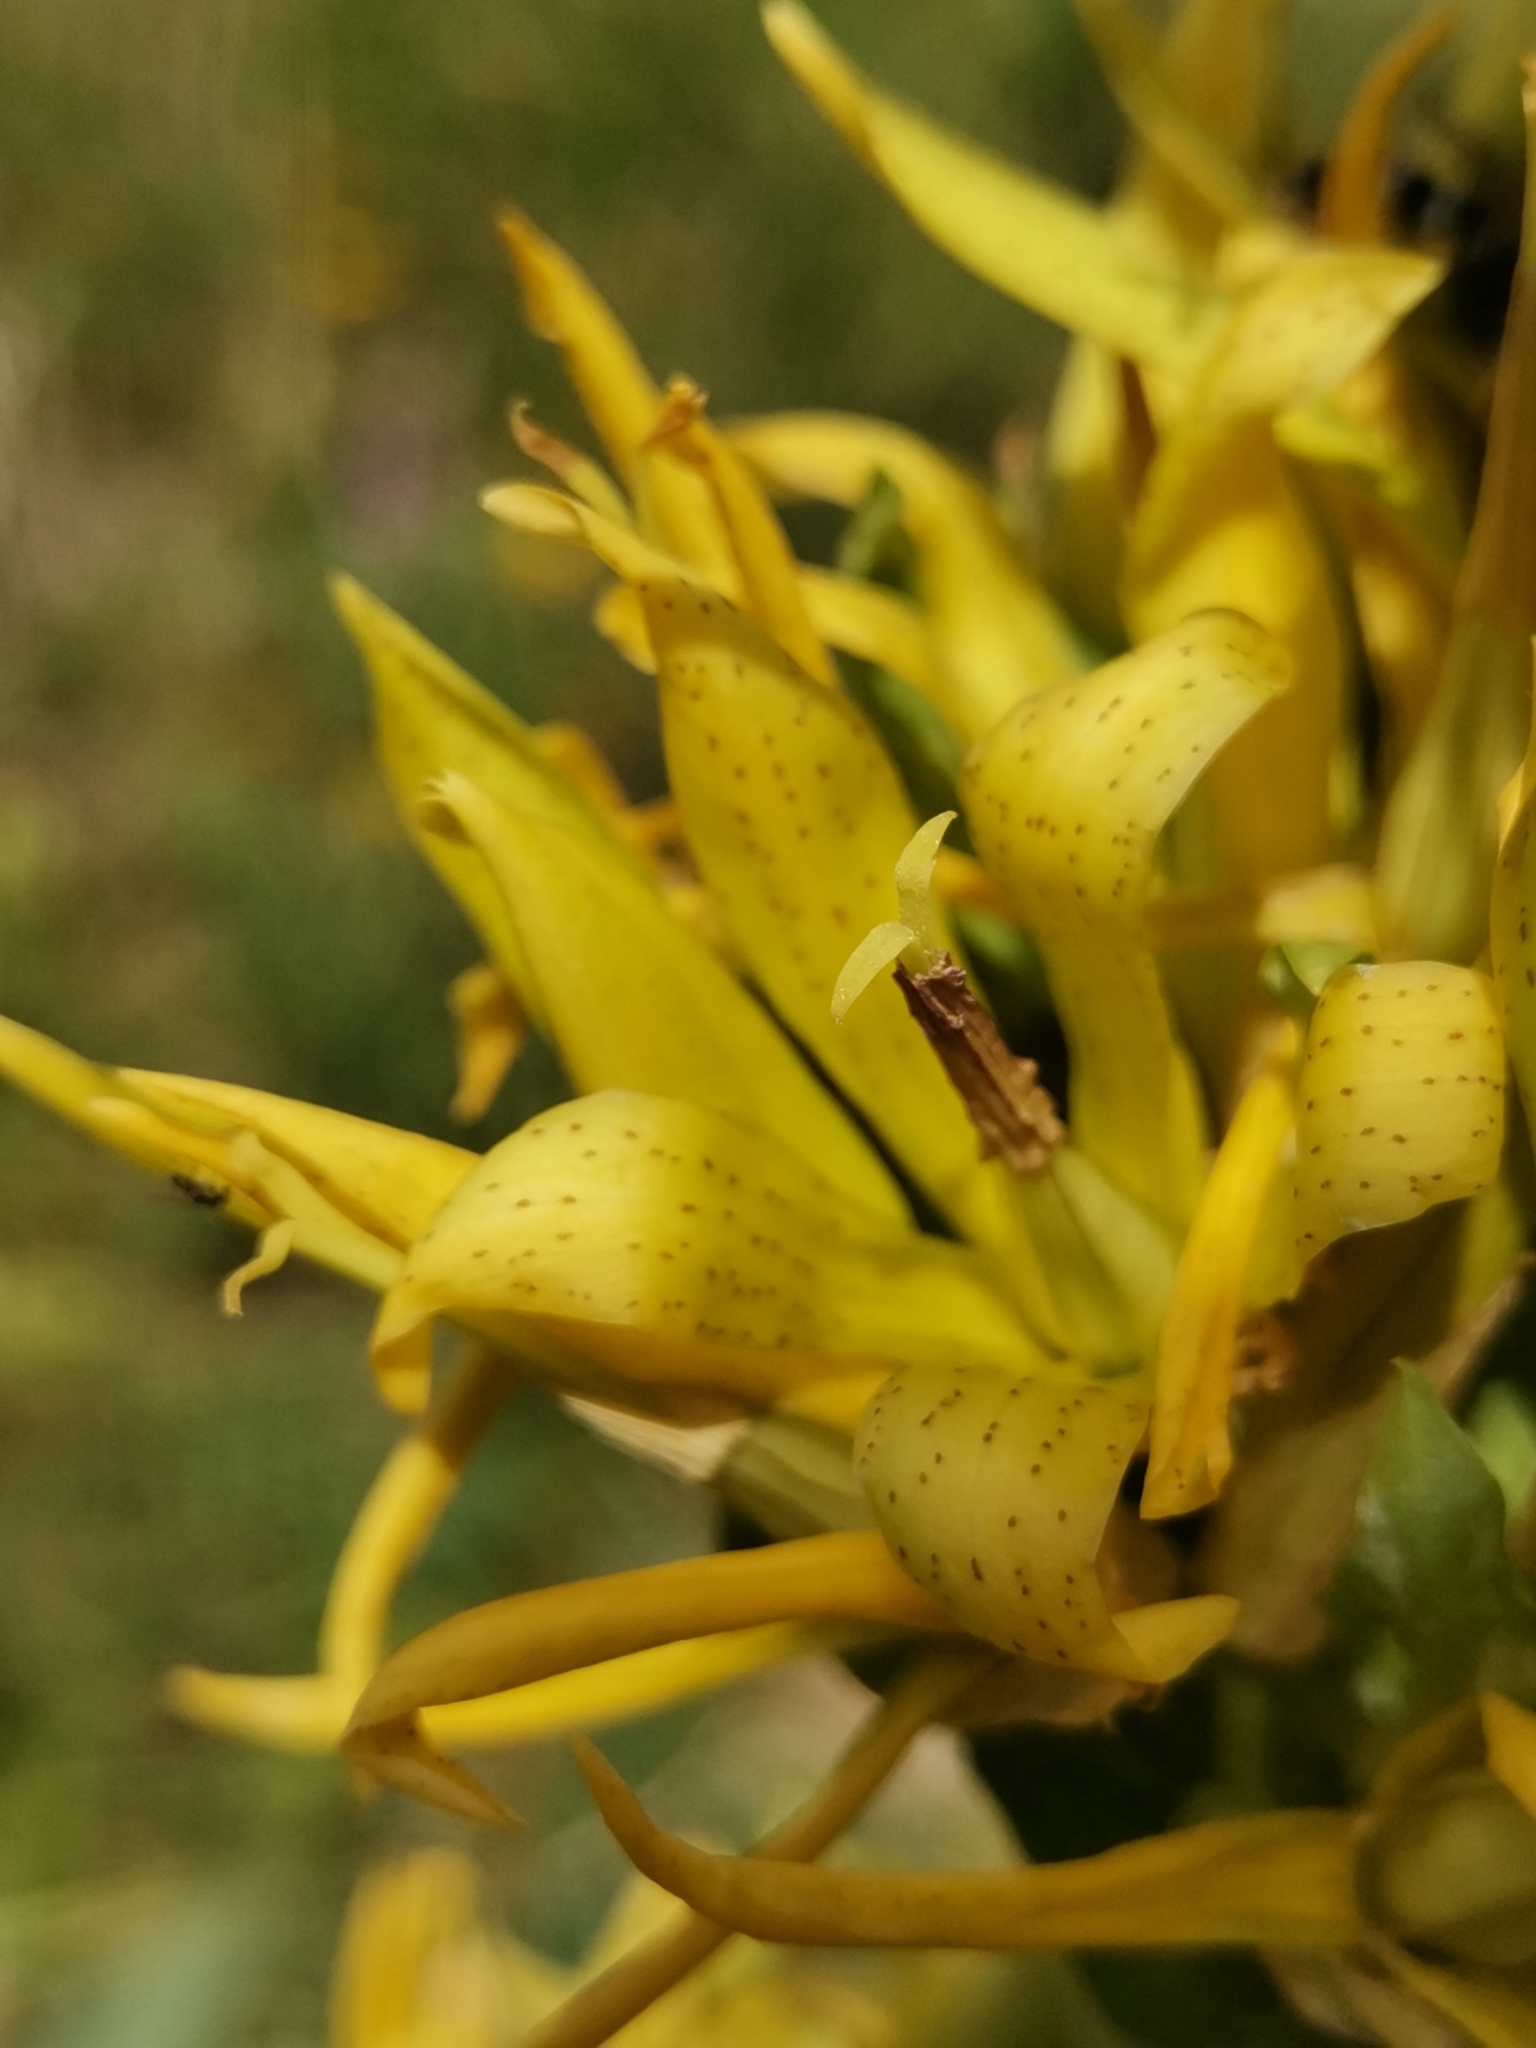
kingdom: Plantae
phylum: Tracheophyta
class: Magnoliopsida
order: Gentianales
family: Gentianaceae
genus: Gentiana
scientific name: Gentiana lutea
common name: Great yellow gentian
